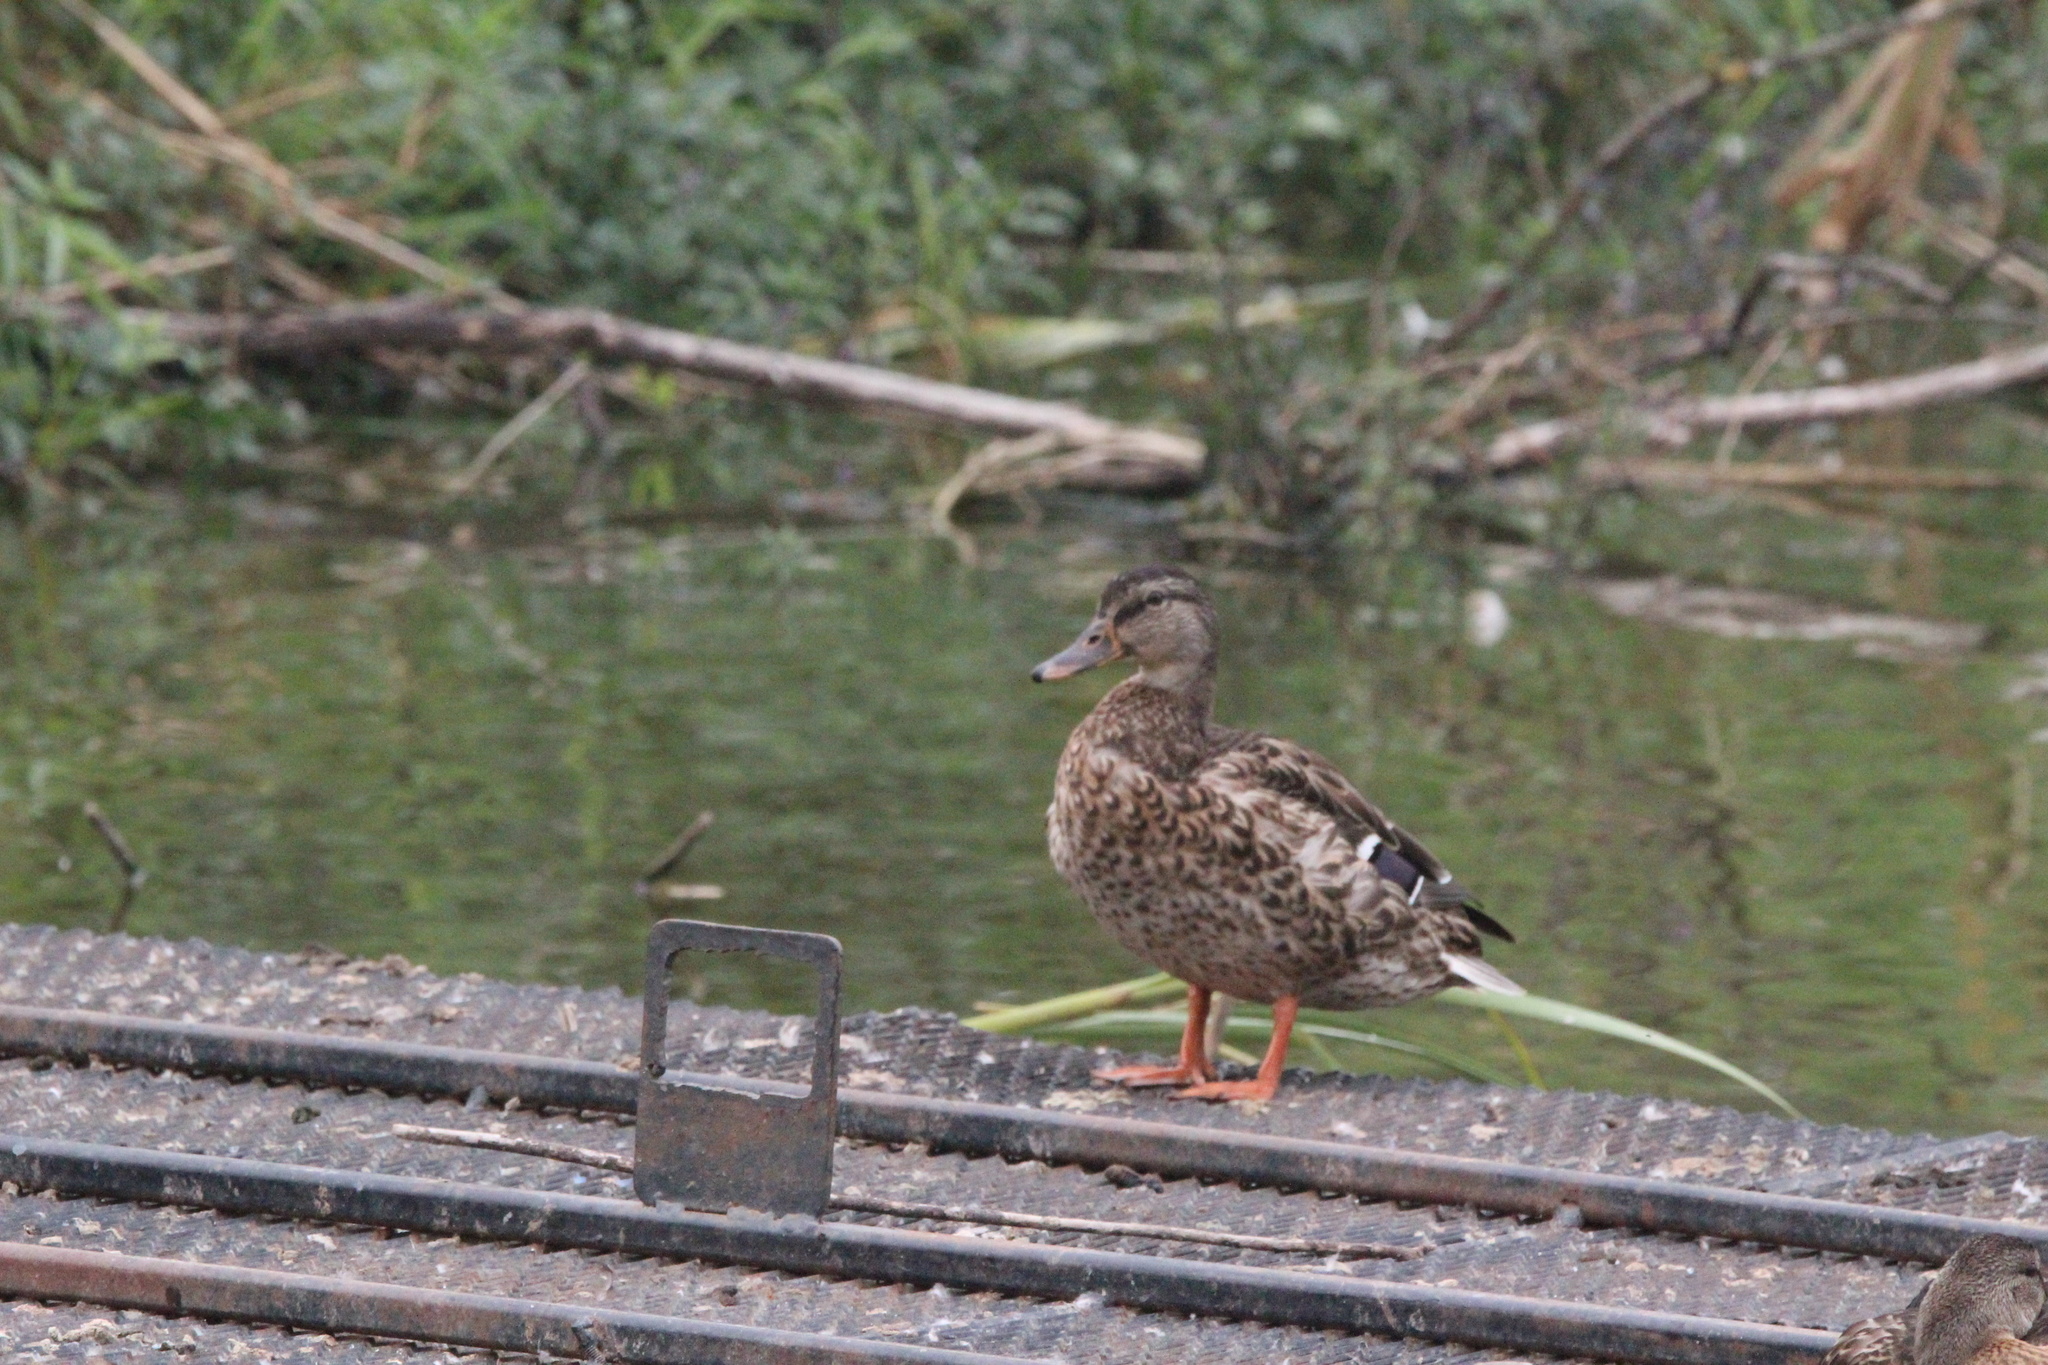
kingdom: Animalia
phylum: Chordata
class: Aves
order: Anseriformes
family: Anatidae
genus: Anas
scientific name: Anas platyrhynchos
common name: Mallard
